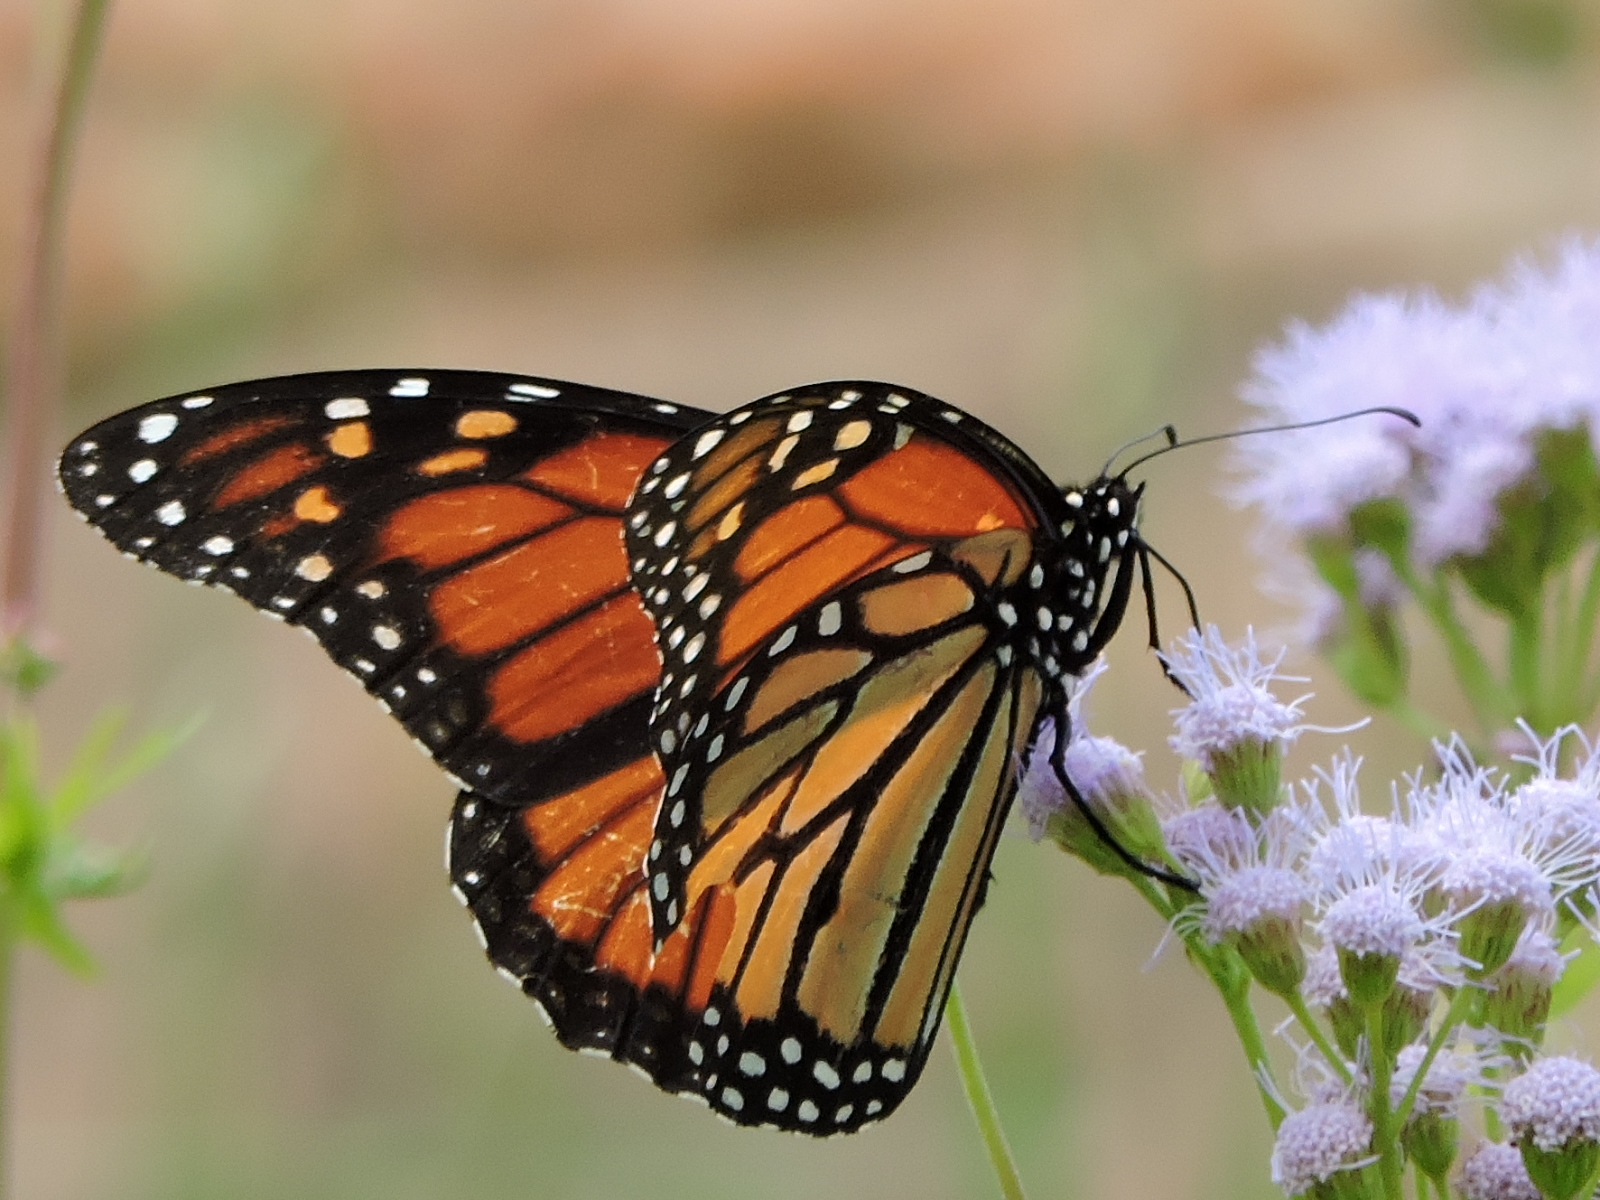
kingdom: Animalia
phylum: Arthropoda
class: Insecta
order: Lepidoptera
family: Nymphalidae
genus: Danaus
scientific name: Danaus plexippus
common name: Monarch
